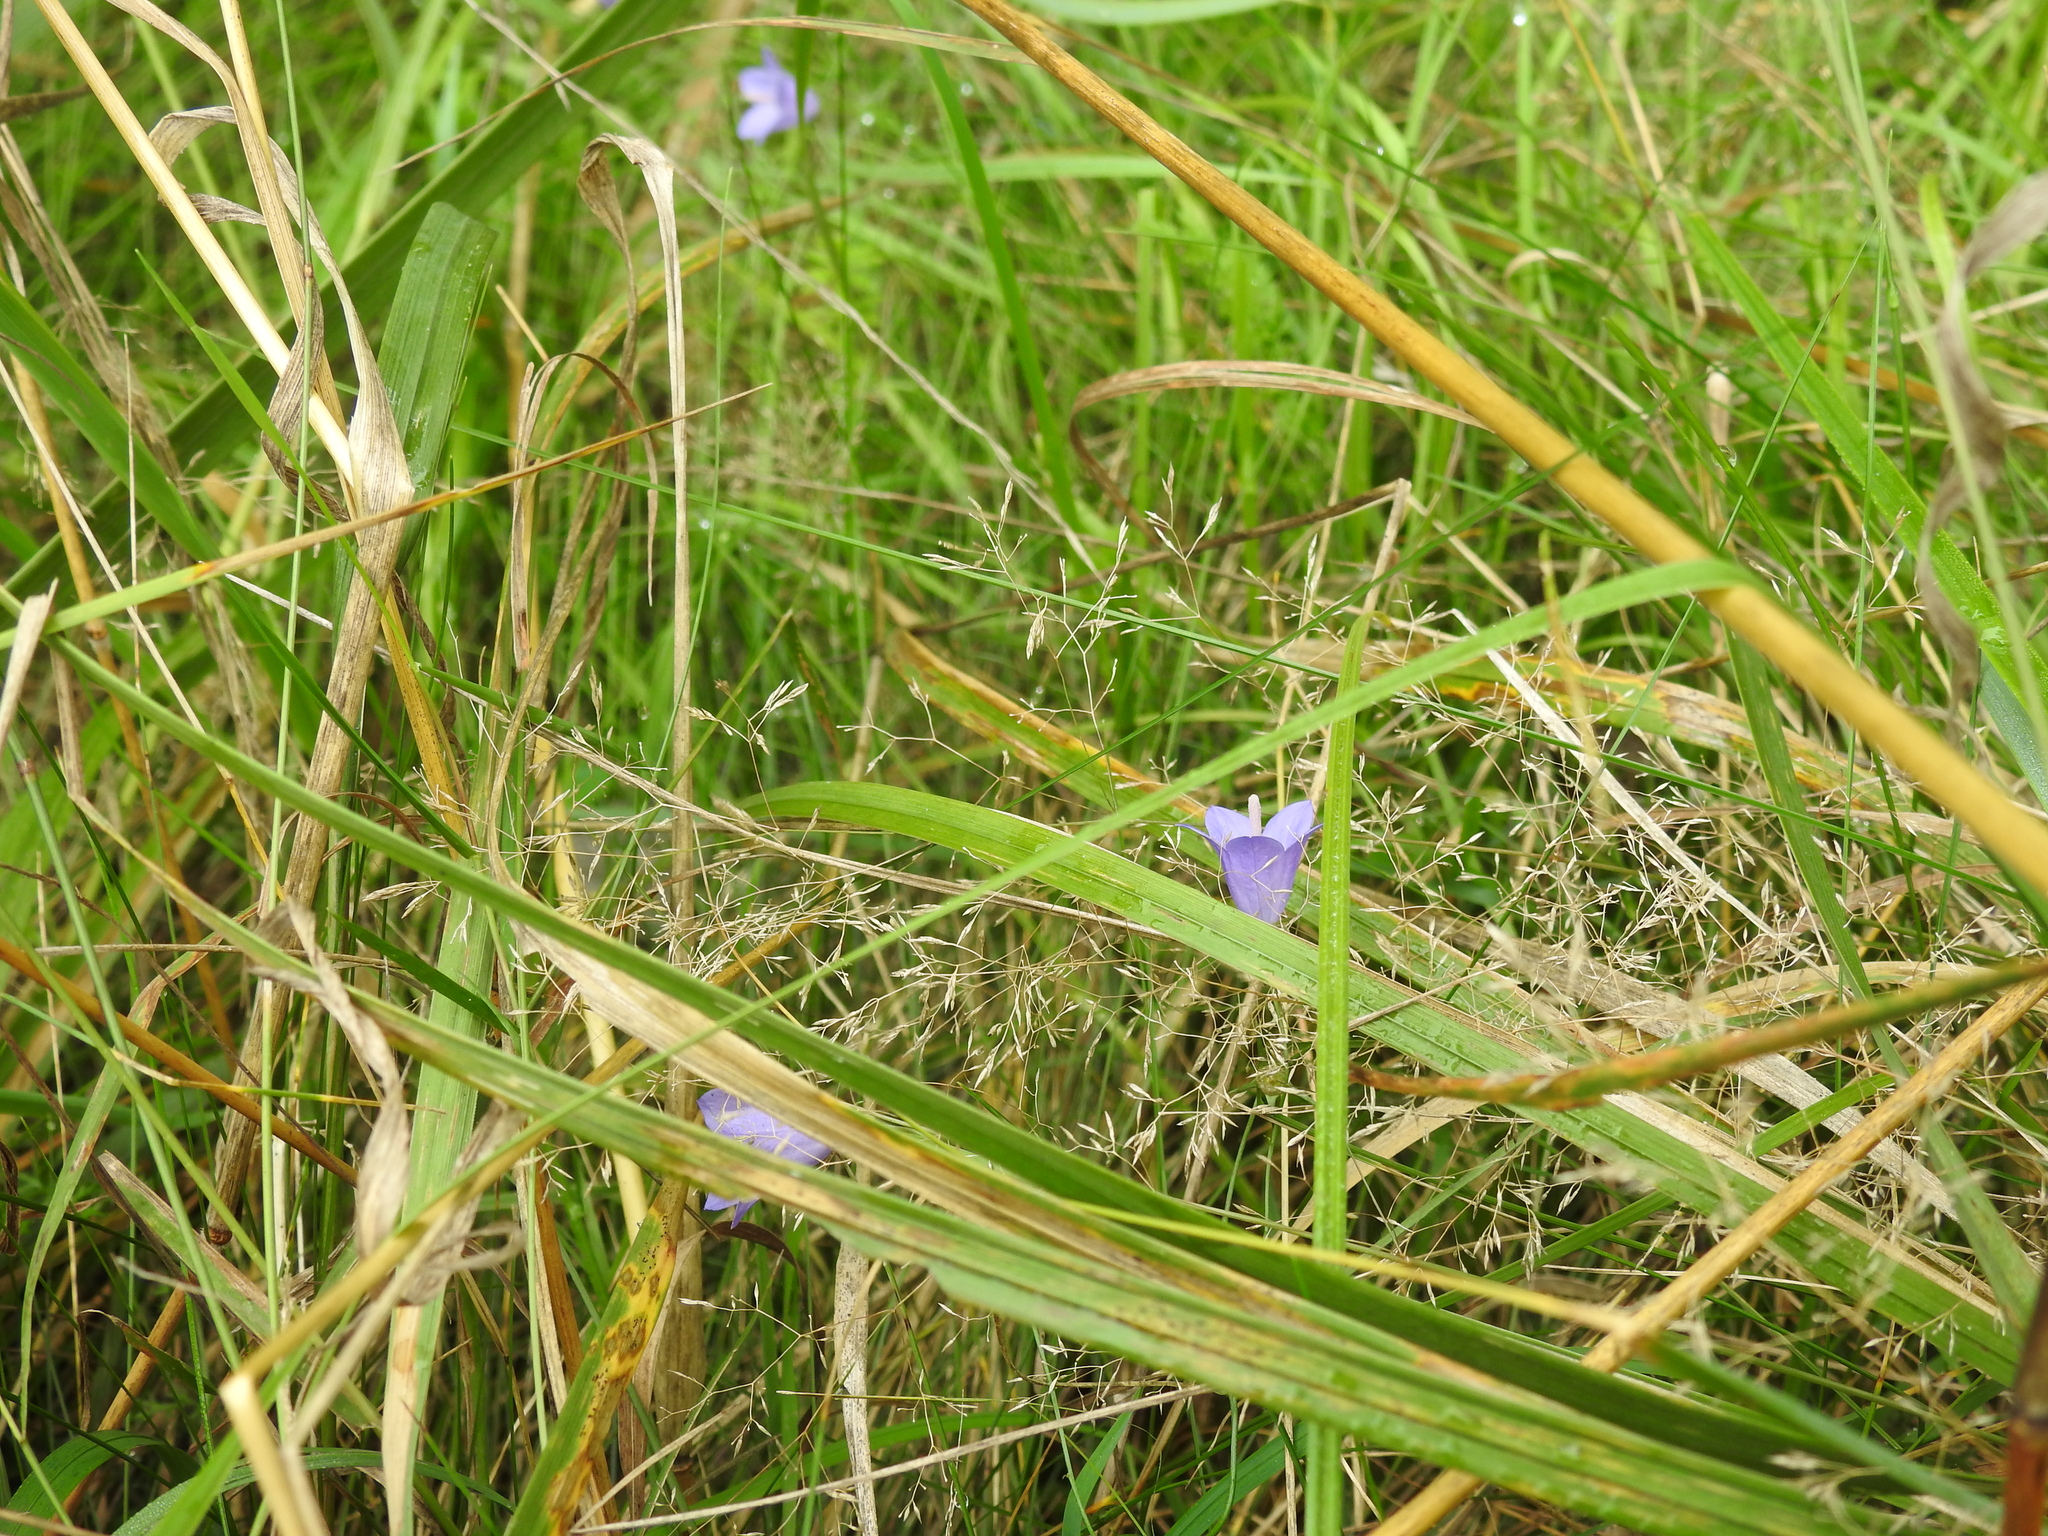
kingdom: Plantae
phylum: Tracheophyta
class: Magnoliopsida
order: Asterales
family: Campanulaceae
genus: Campanula
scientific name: Campanula rotundifolia
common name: Harebell
